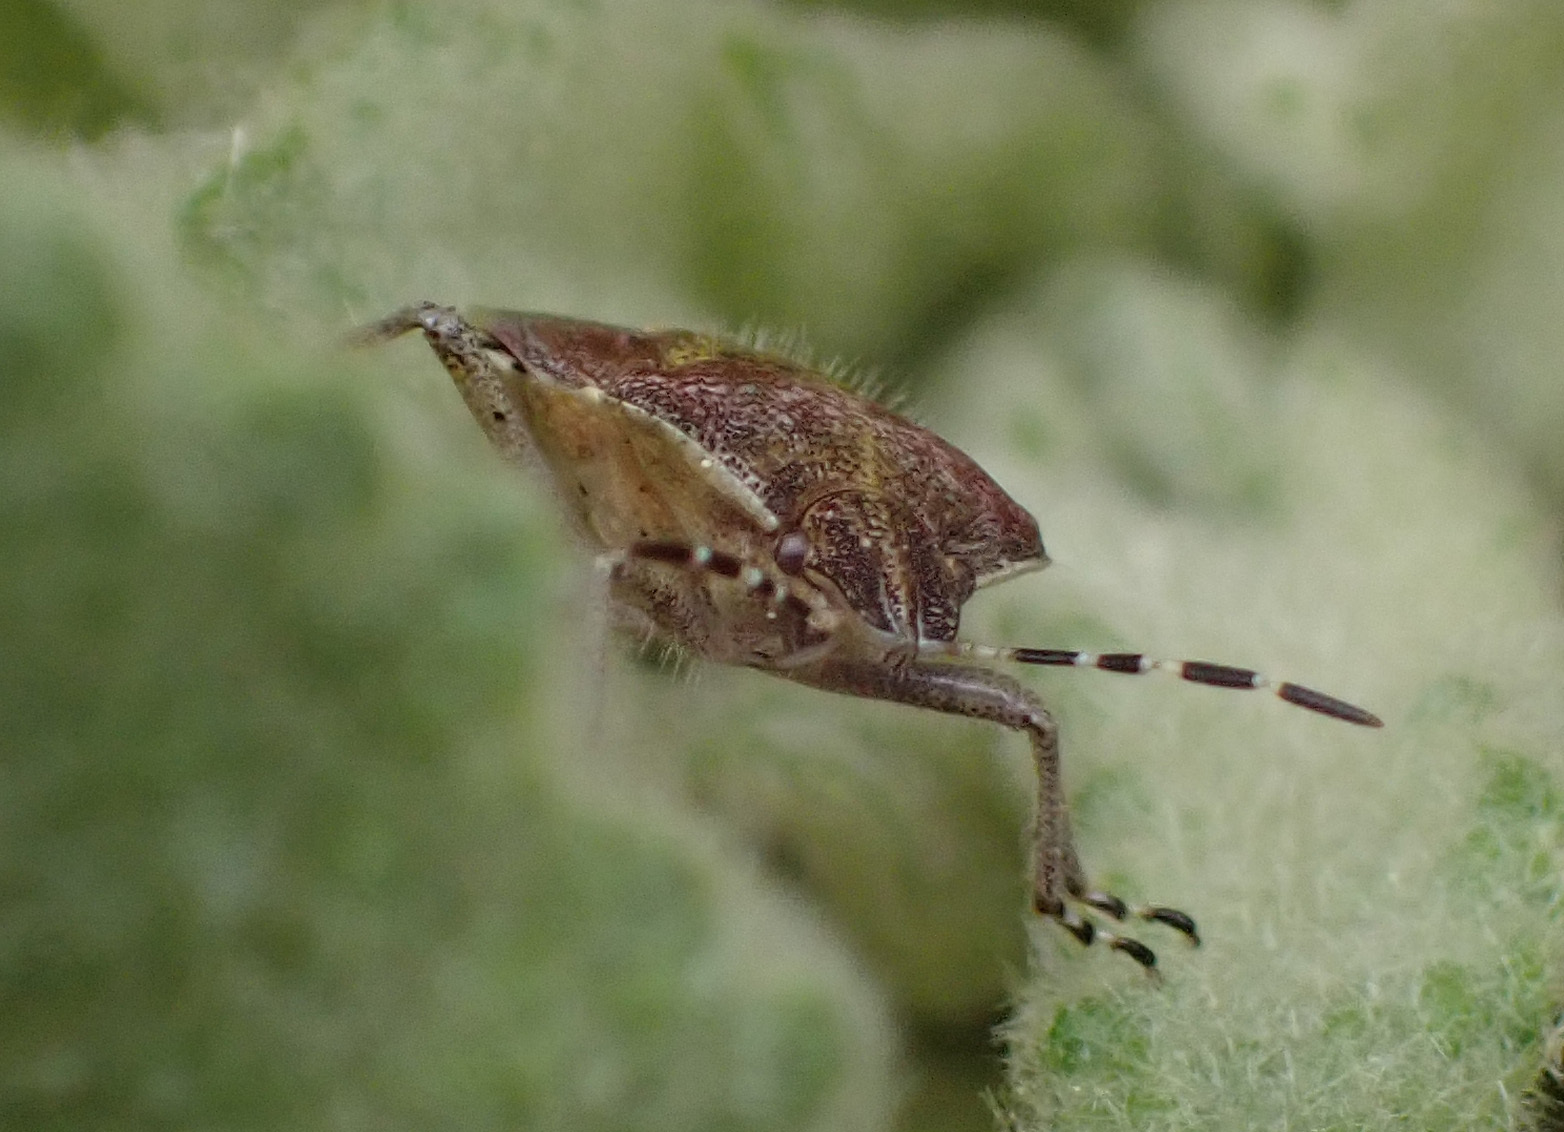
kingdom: Animalia
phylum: Arthropoda
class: Insecta
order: Hemiptera
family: Pentatomidae
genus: Dolycoris
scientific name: Dolycoris baccarum
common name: Sloe bug
